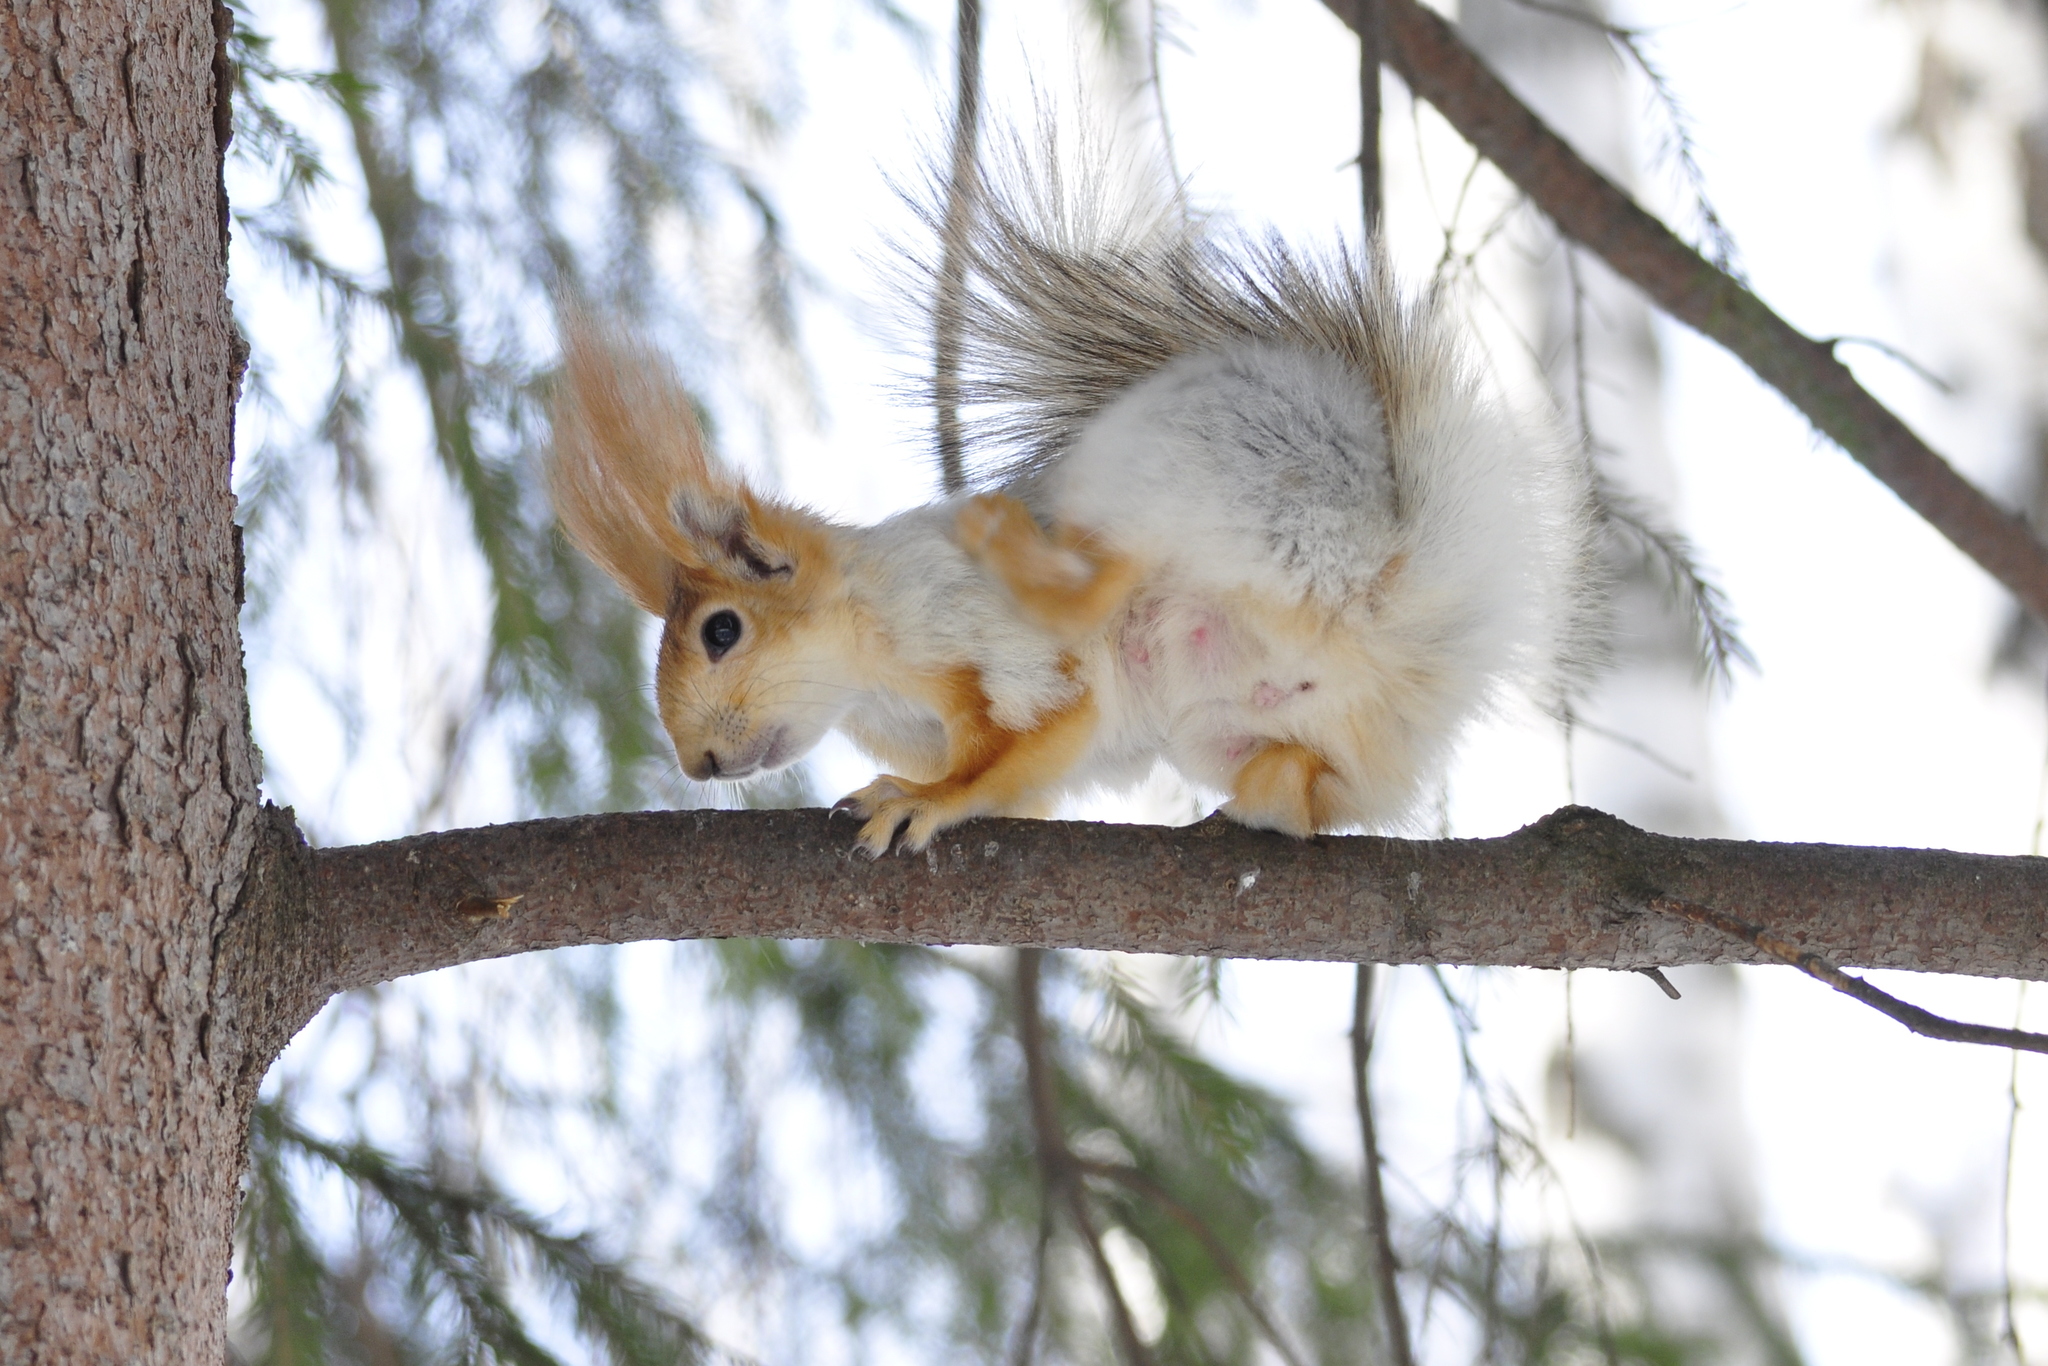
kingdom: Animalia
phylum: Chordata
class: Mammalia
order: Rodentia
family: Sciuridae
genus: Sciurus
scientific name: Sciurus vulgaris
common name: Eurasian red squirrel
